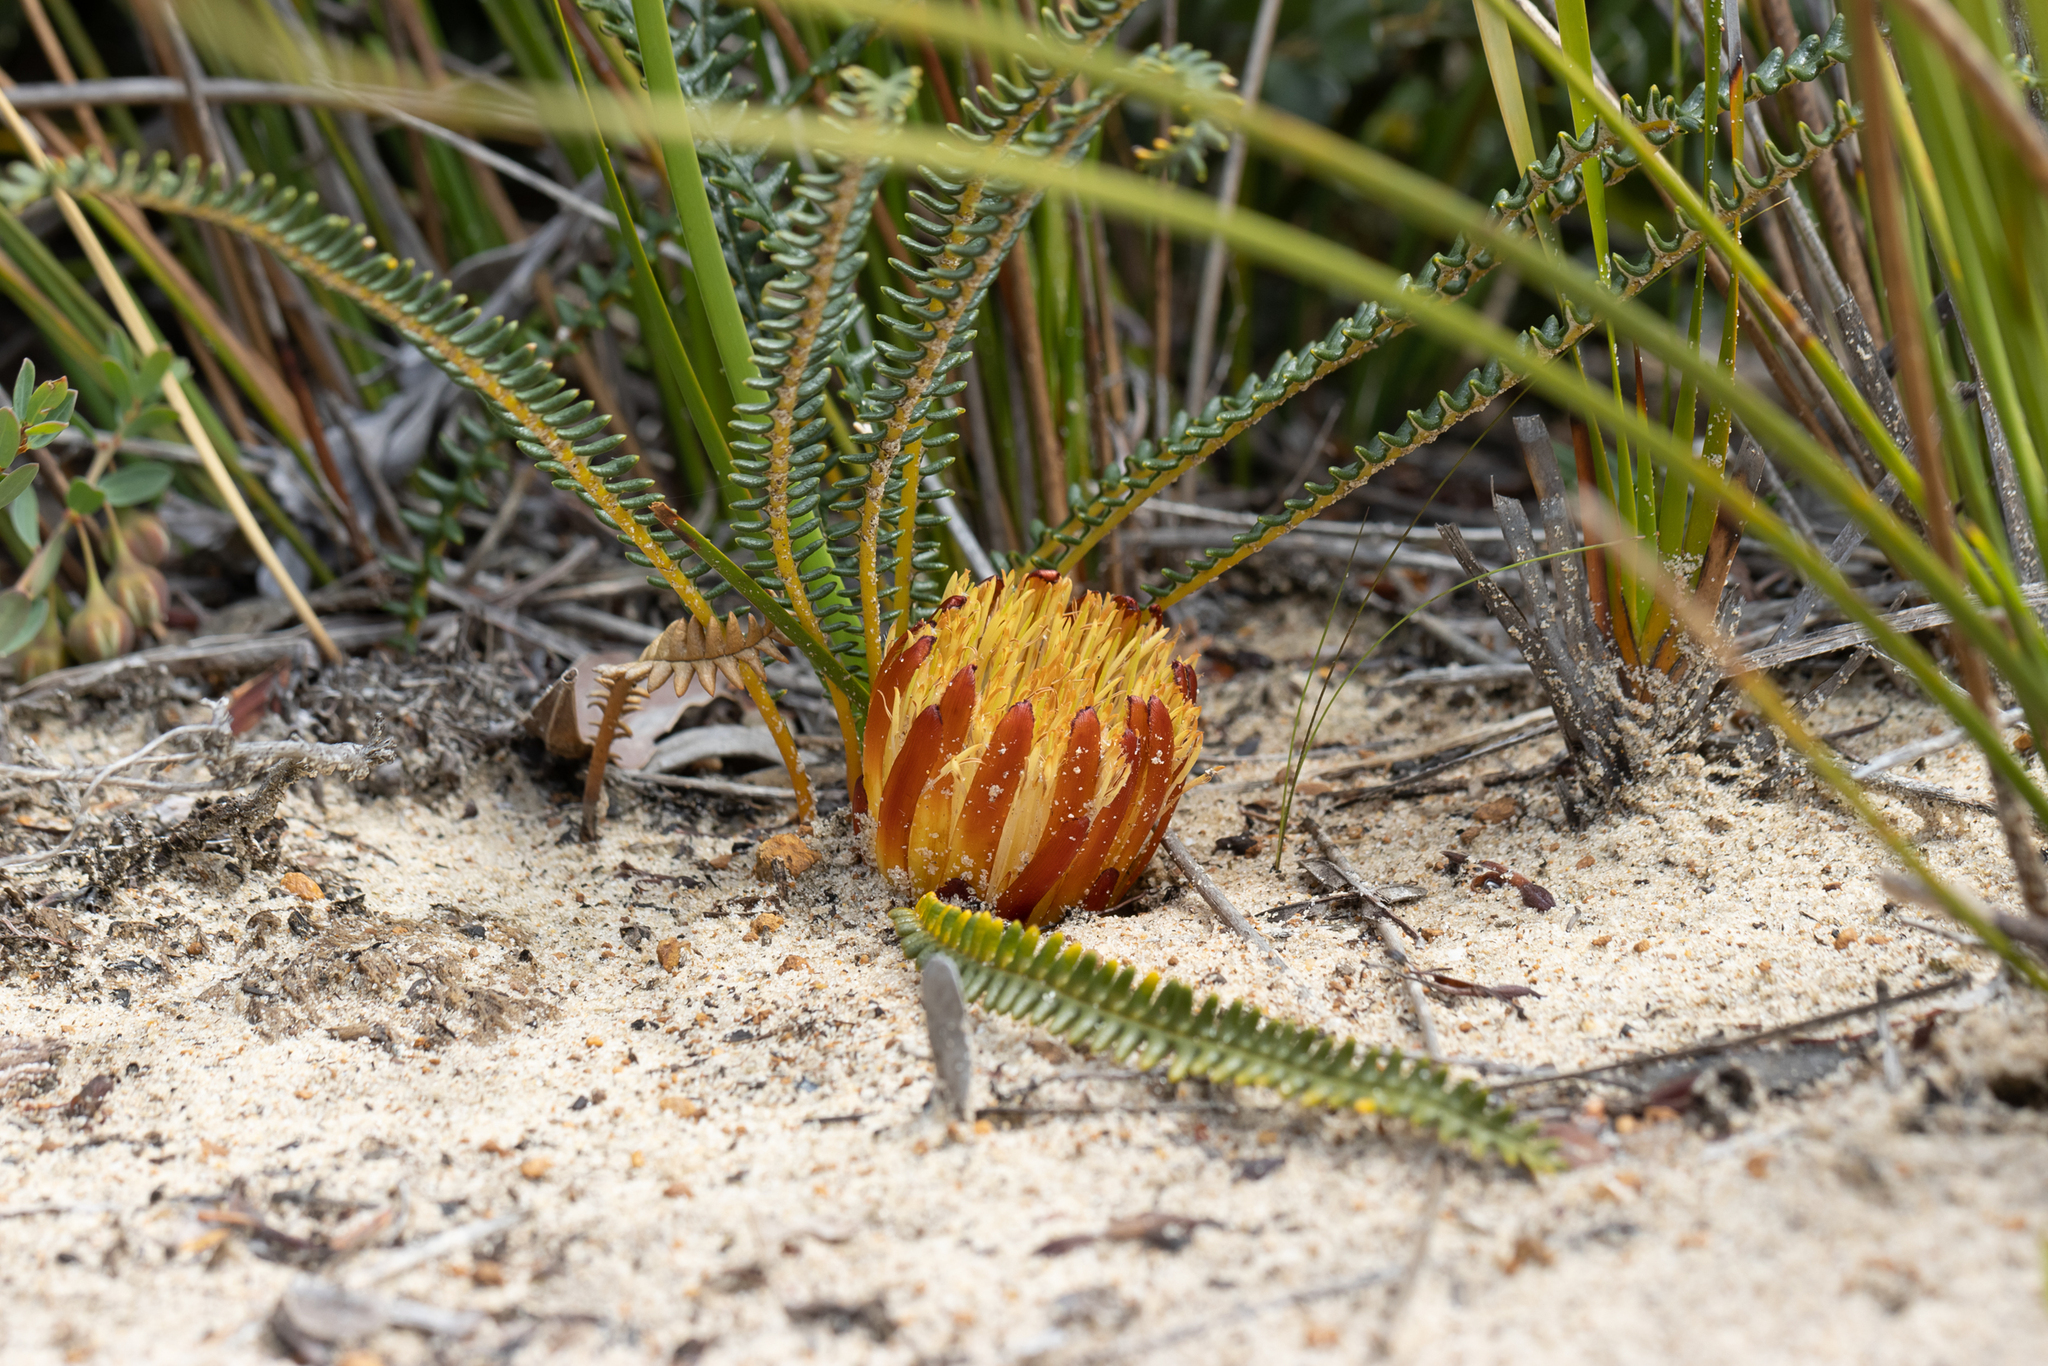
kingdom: Plantae
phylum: Tracheophyta
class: Magnoliopsida
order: Proteales
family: Proteaceae
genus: Banksia
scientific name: Banksia obtusa
